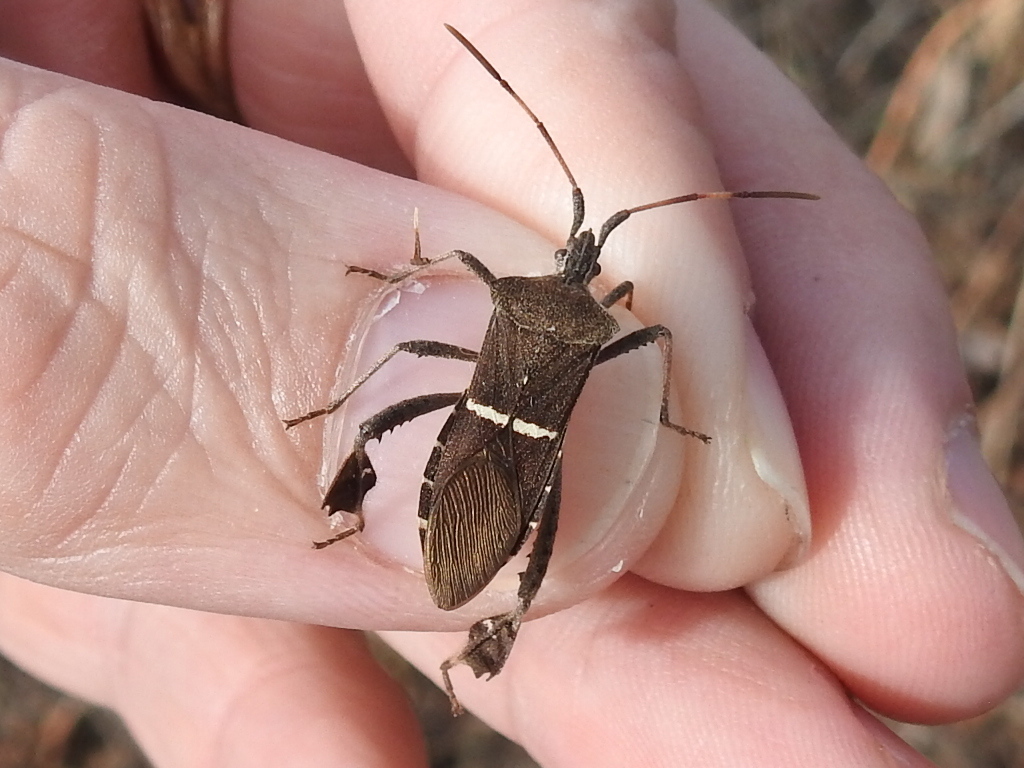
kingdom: Animalia
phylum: Arthropoda
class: Insecta
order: Hemiptera
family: Coreidae
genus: Leptoglossus
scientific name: Leptoglossus phyllopus
